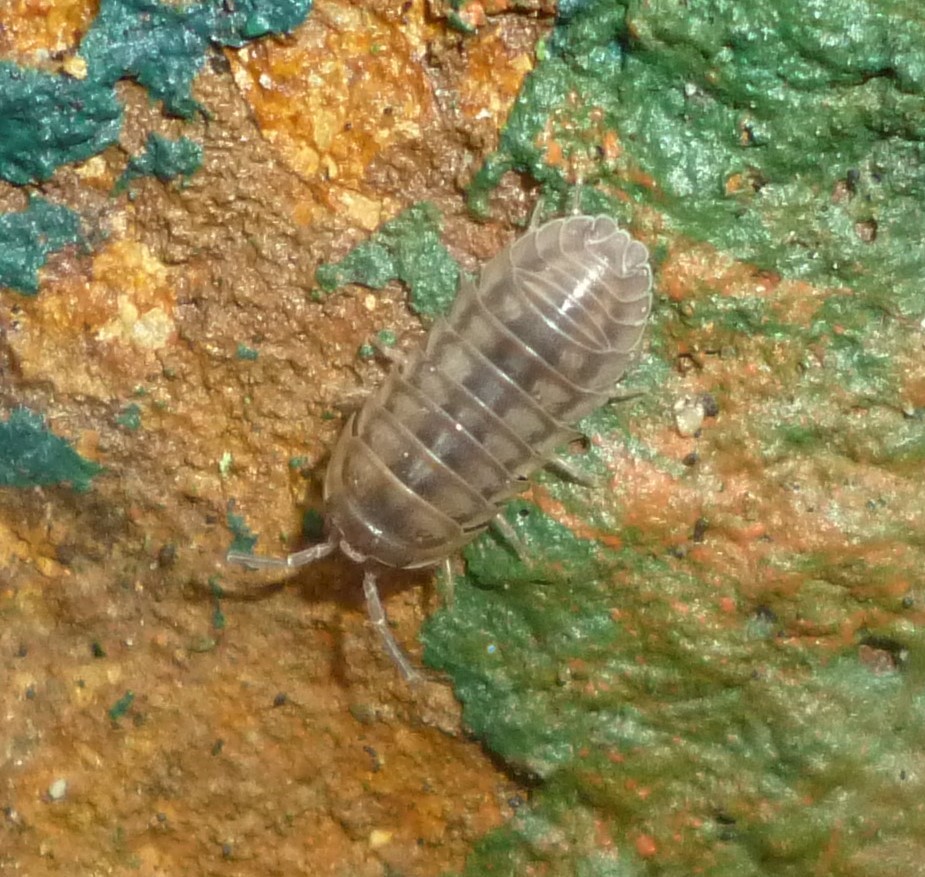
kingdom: Animalia
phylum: Arthropoda
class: Malacostraca
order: Isopoda
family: Armadillidiidae
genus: Armadillidium
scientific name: Armadillidium nasatum
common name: Isopod
